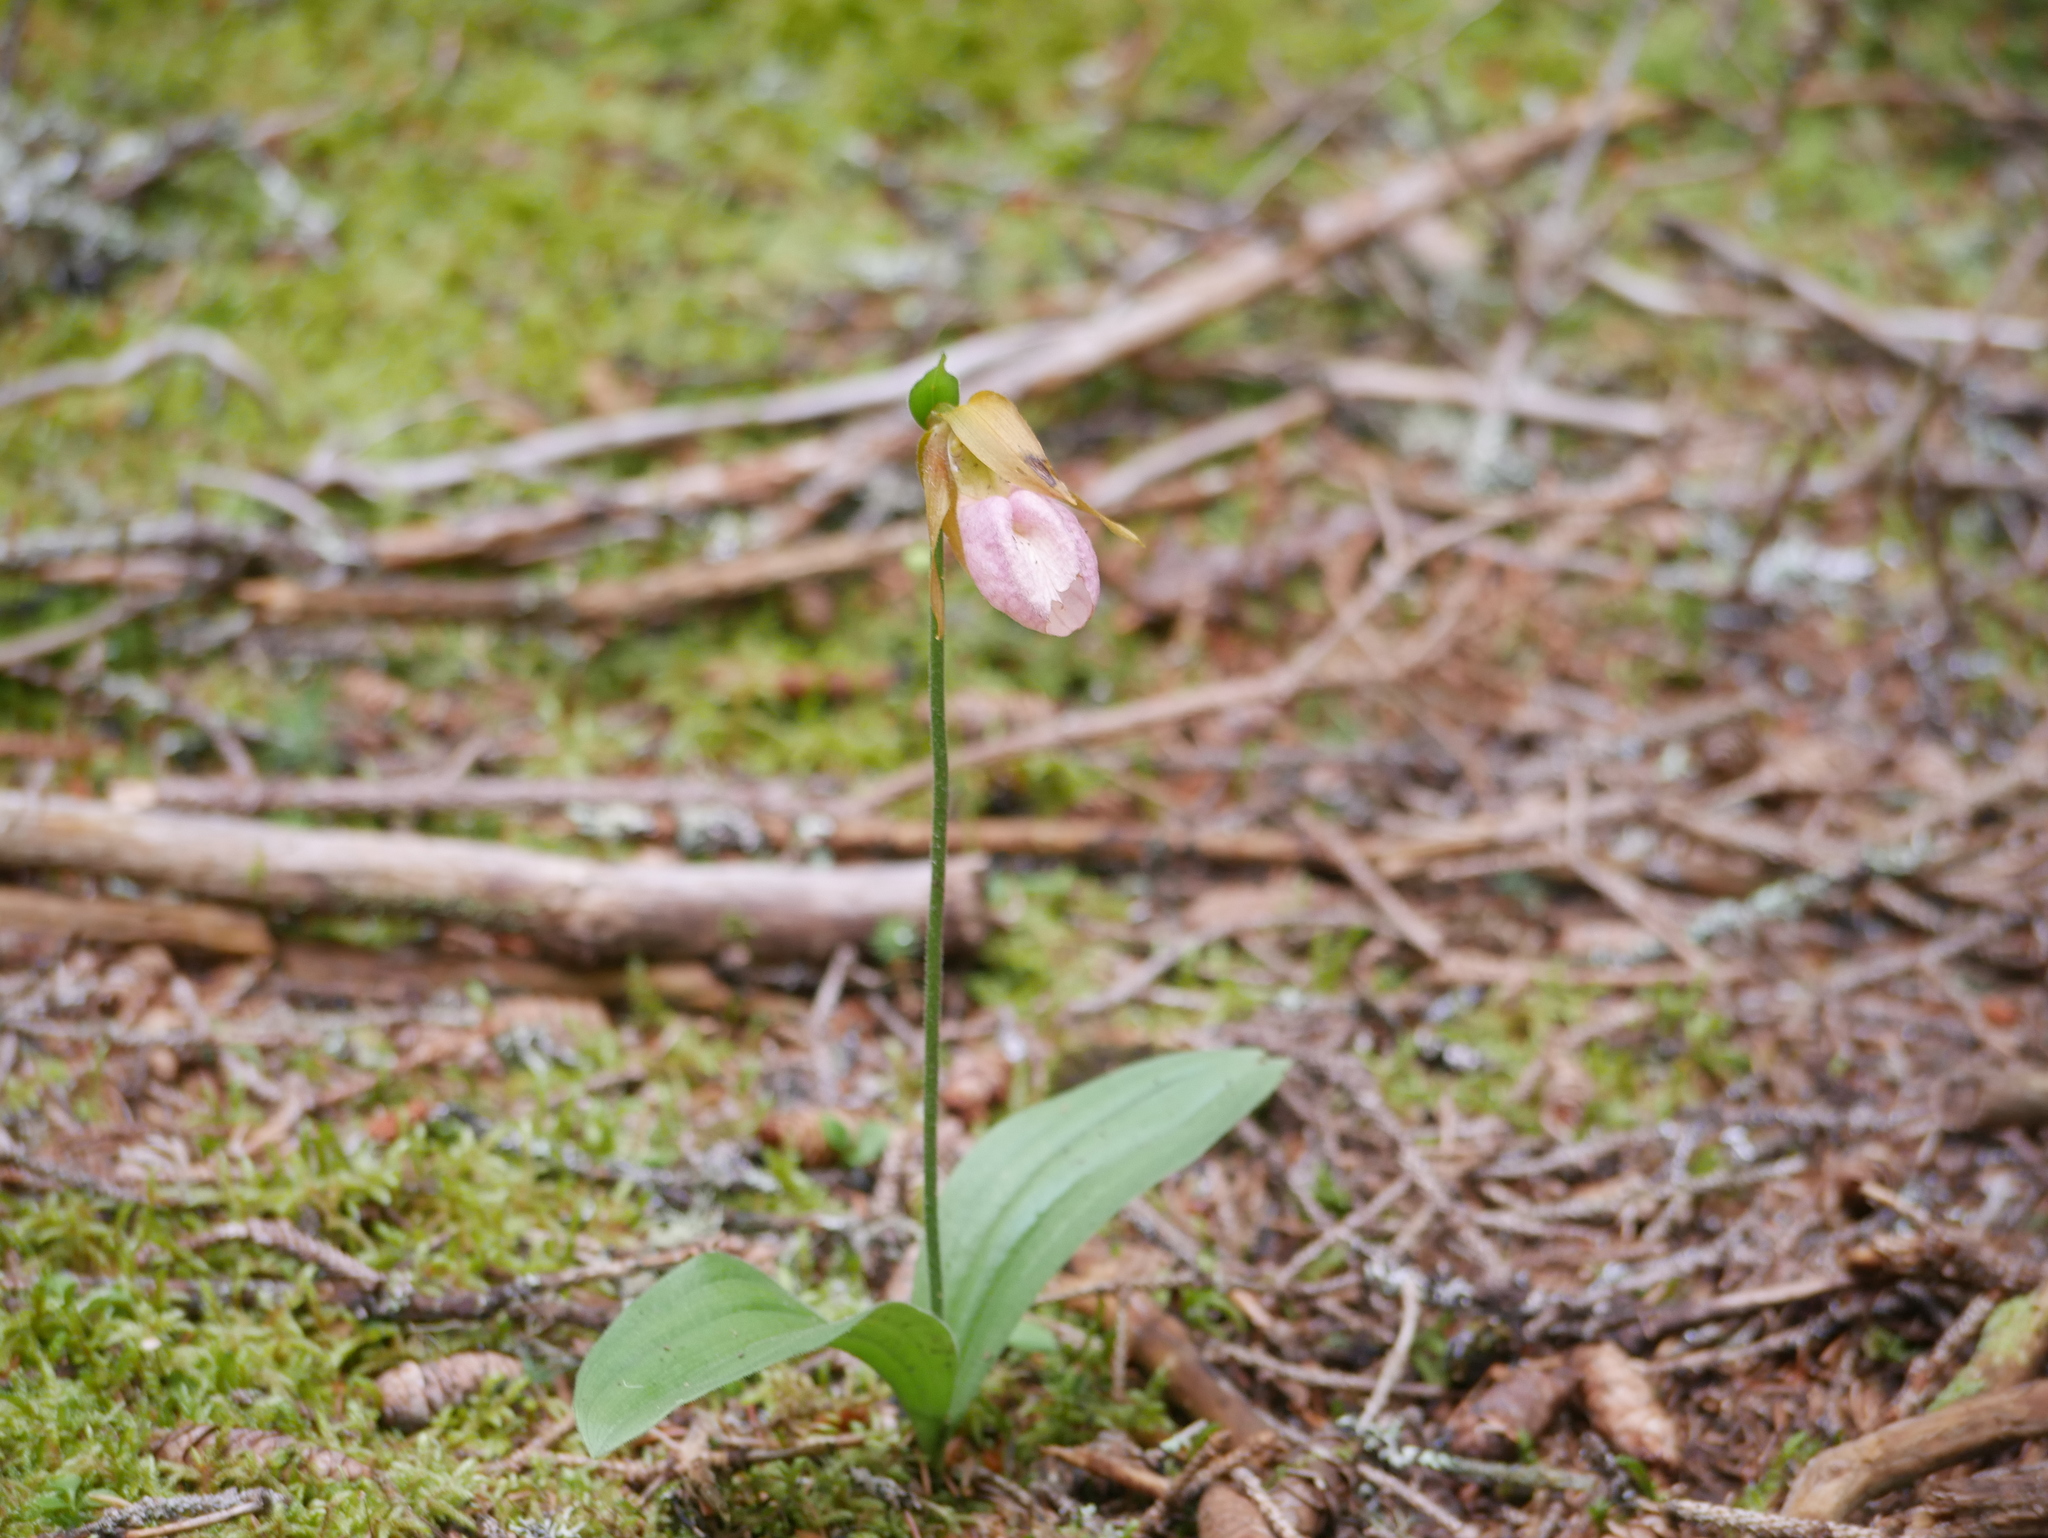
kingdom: Plantae
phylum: Tracheophyta
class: Liliopsida
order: Asparagales
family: Orchidaceae
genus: Cypripedium
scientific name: Cypripedium acaule
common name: Pink lady's-slipper
